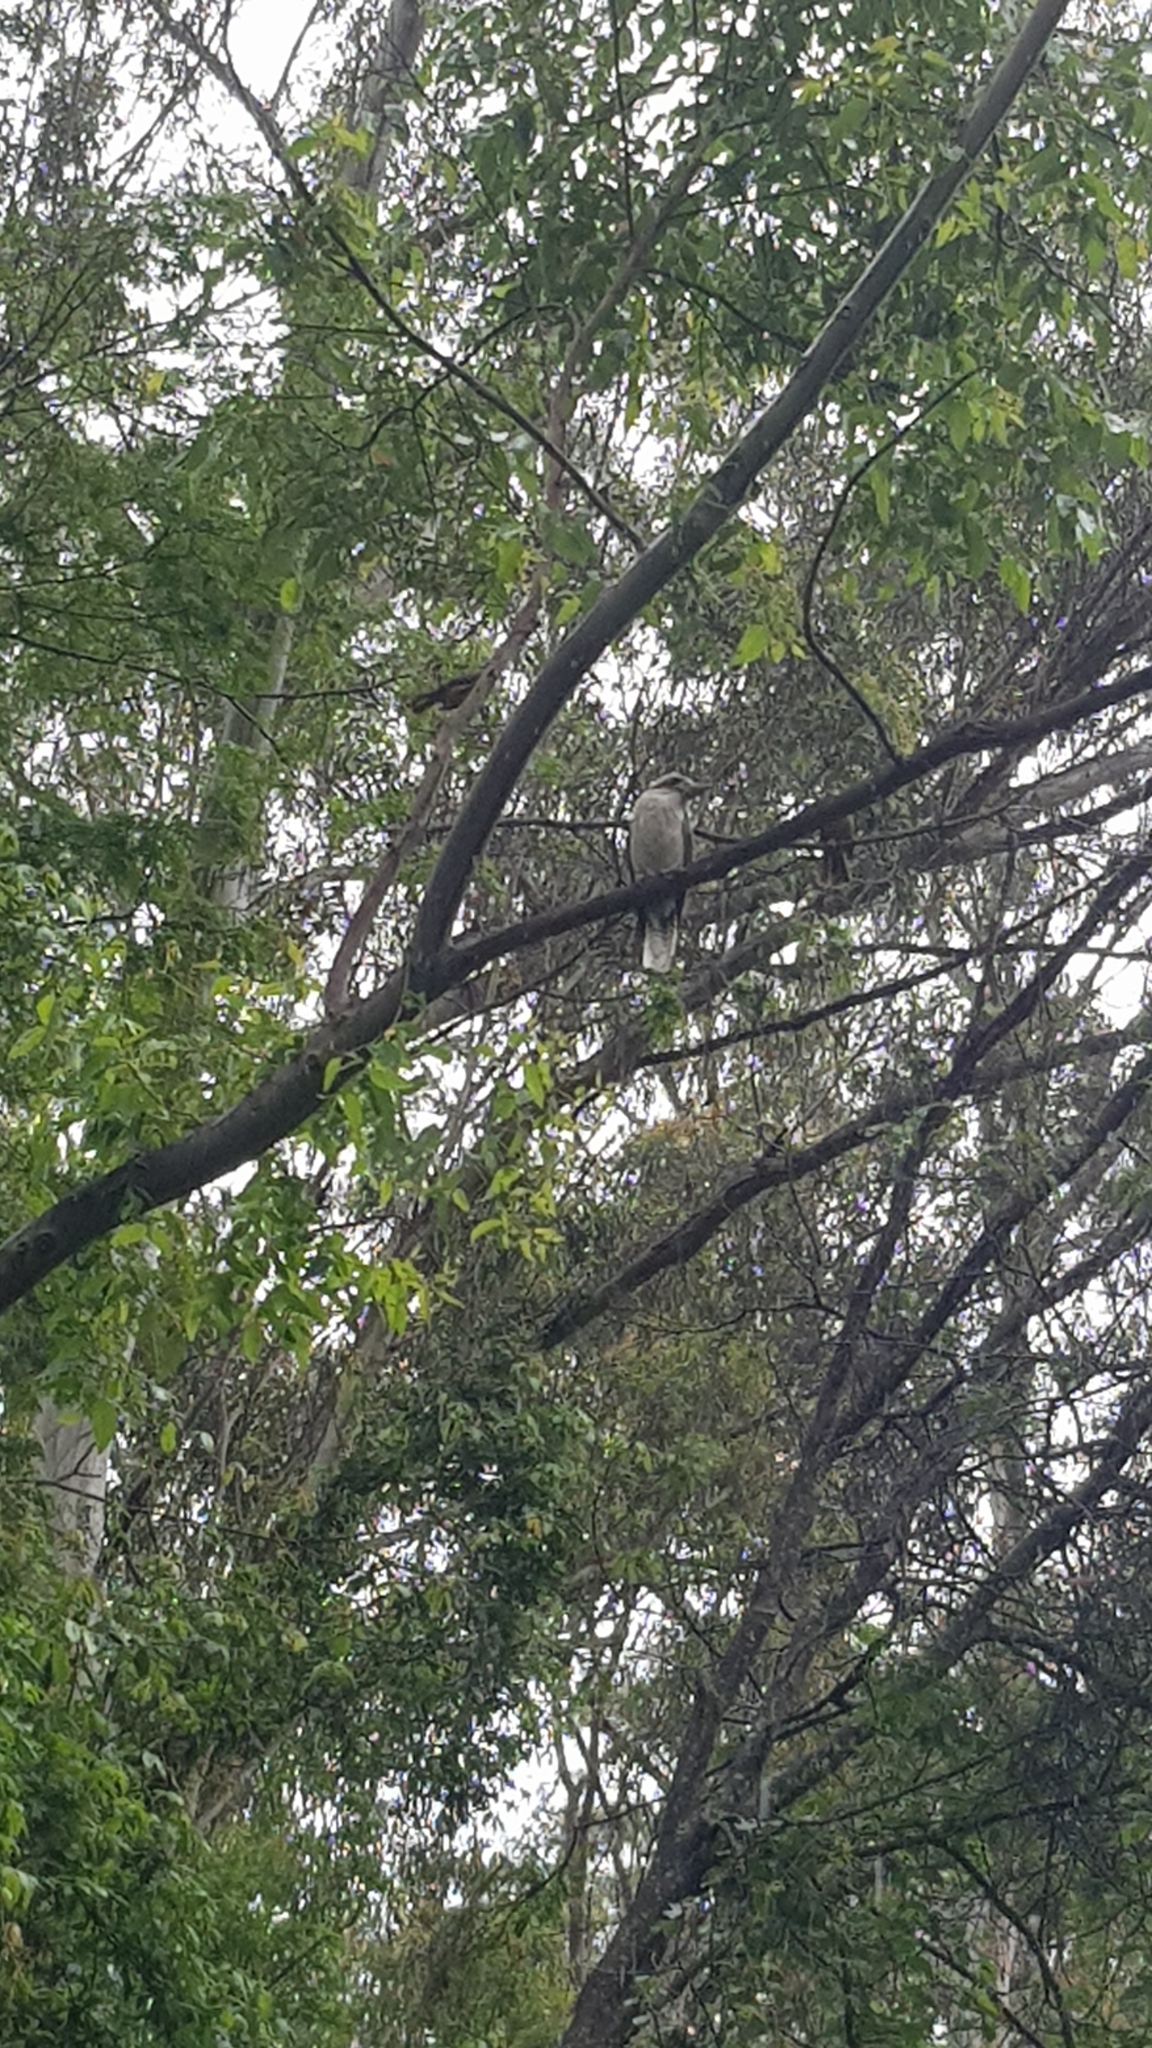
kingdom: Animalia
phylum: Chordata
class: Aves
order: Passeriformes
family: Meliphagidae
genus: Manorina
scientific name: Manorina melanophrys
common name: Bell miner
